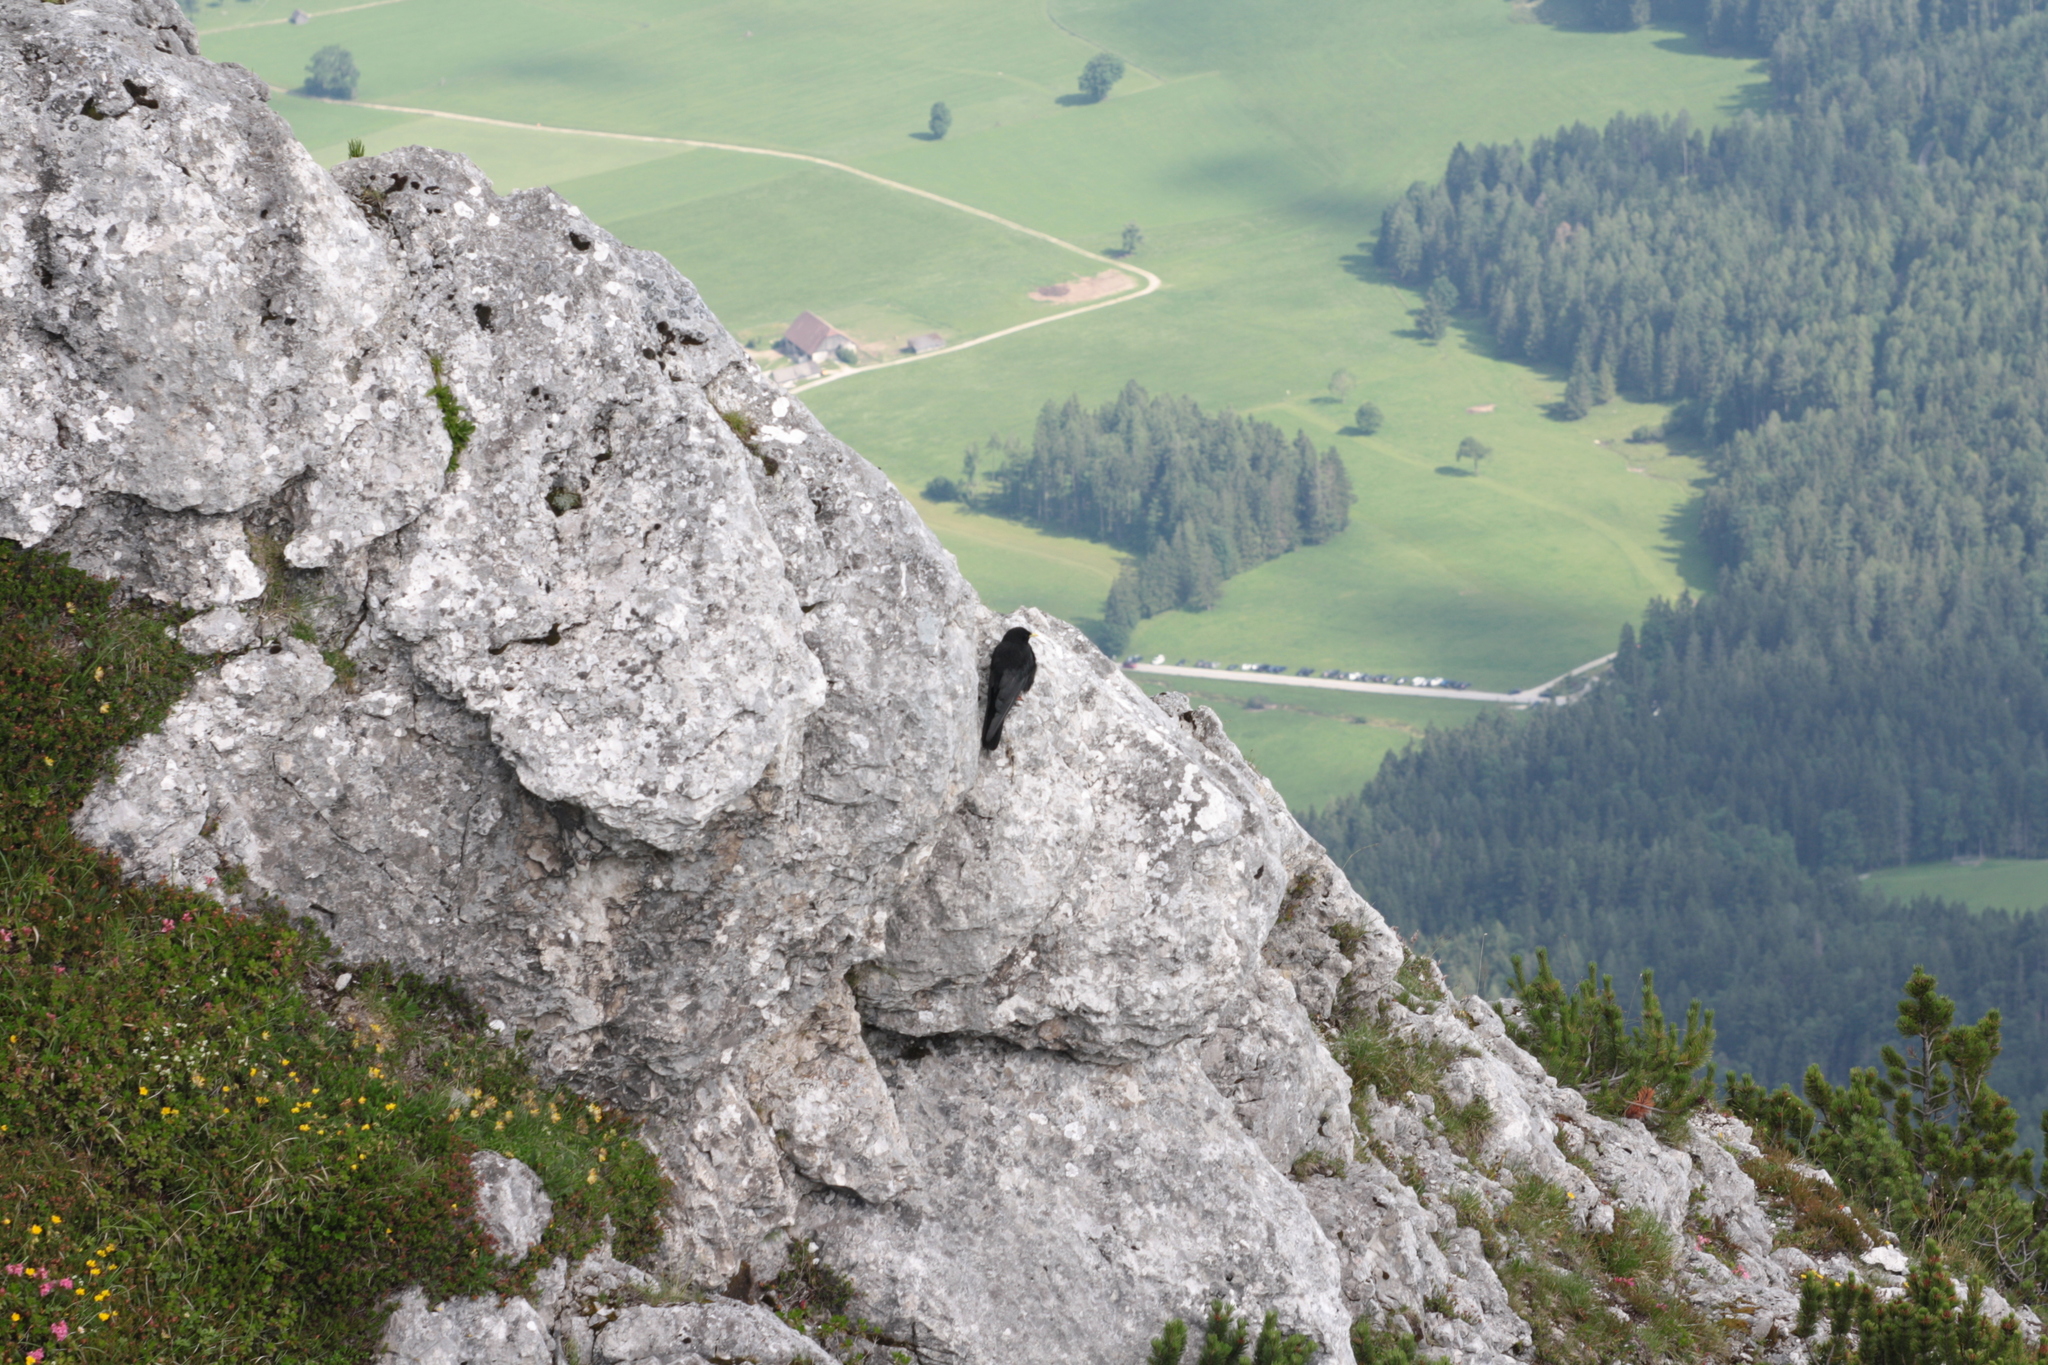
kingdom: Animalia
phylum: Chordata
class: Aves
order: Passeriformes
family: Corvidae
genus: Pyrrhocorax
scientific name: Pyrrhocorax graculus
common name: Alpine chough
